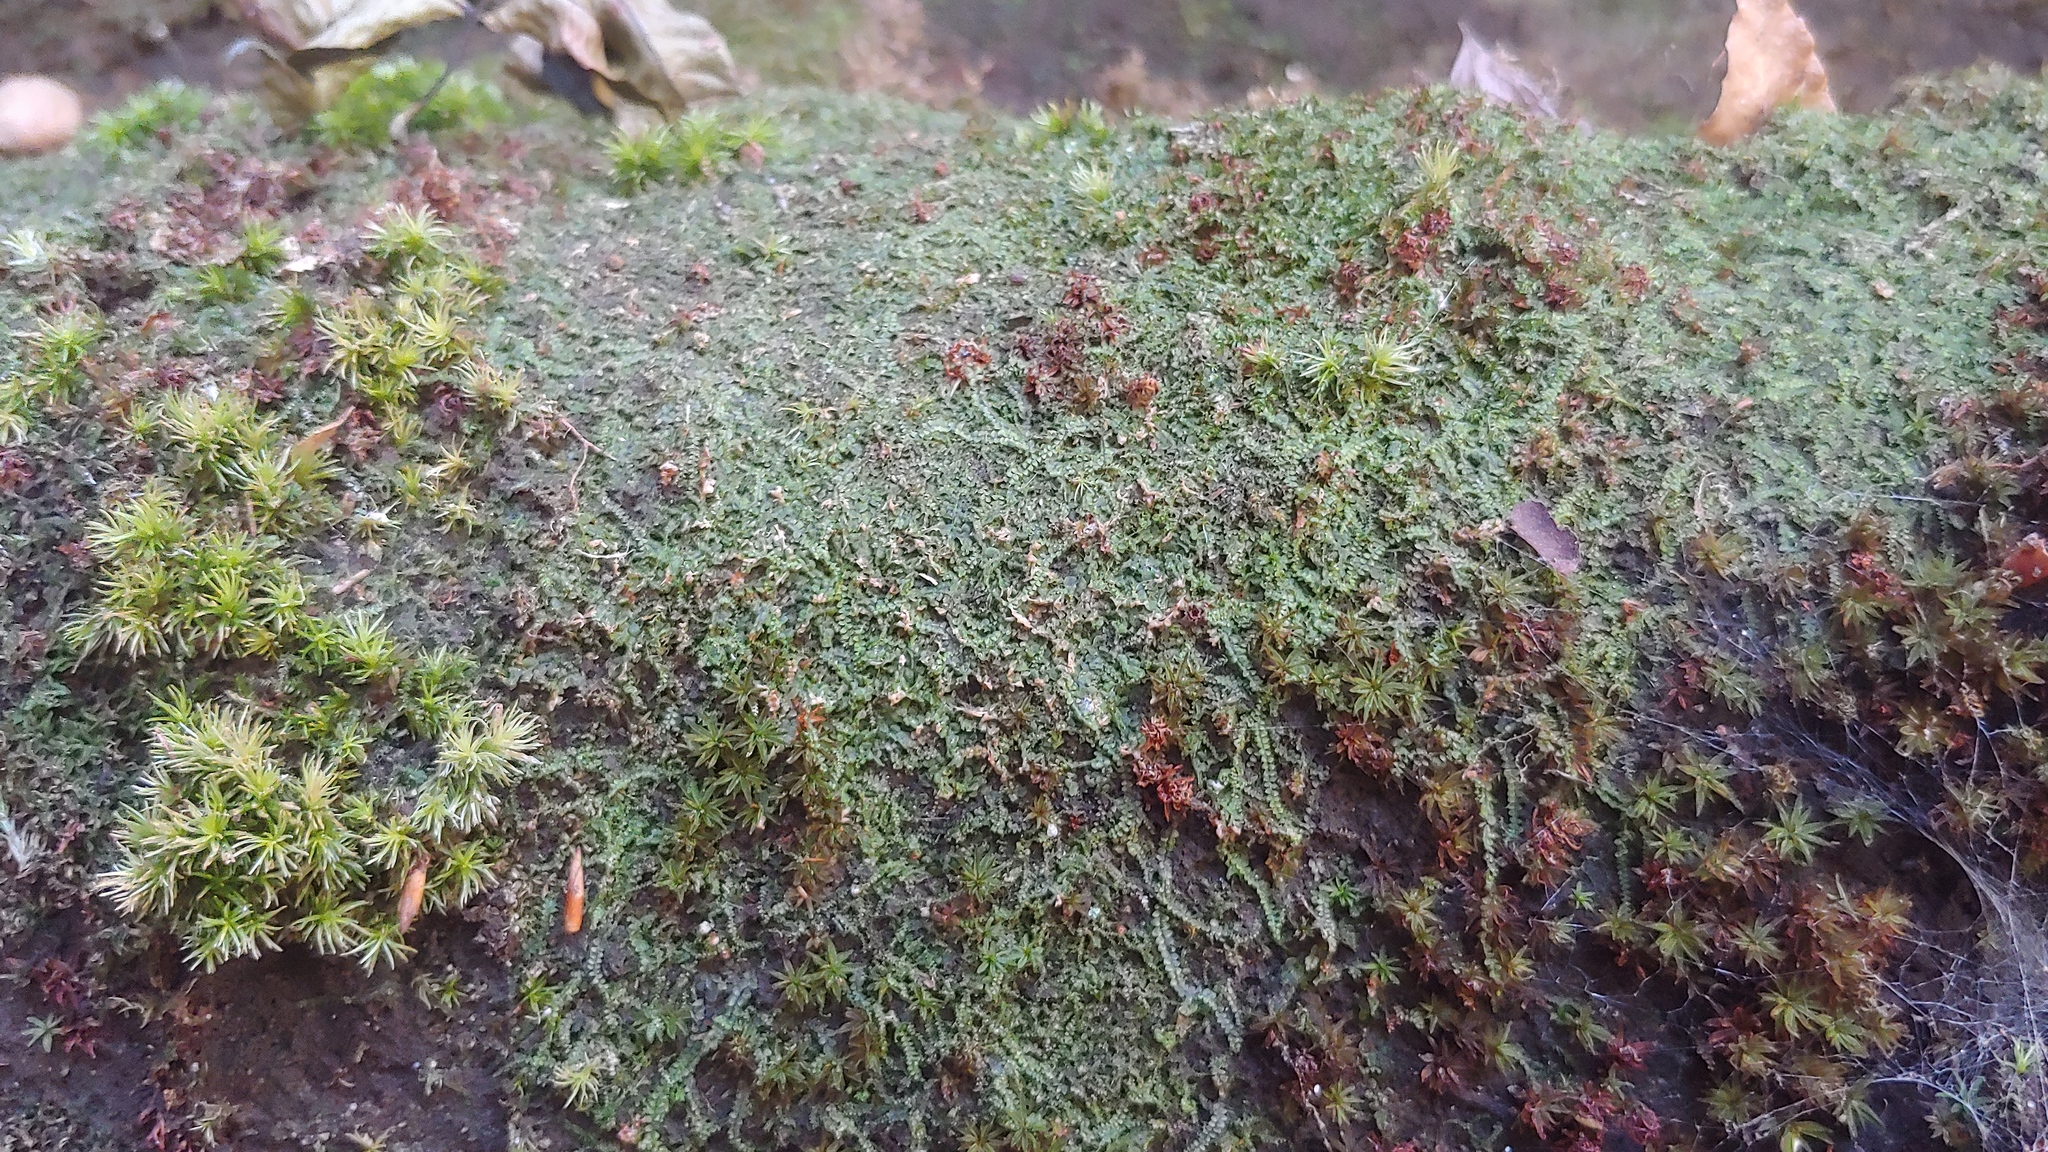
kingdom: Plantae
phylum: Marchantiophyta
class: Jungermanniopsida
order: Jungermanniales
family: Calypogeiaceae
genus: Calypogeia
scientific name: Calypogeia muelleriana
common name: Mueller s pouchwort
